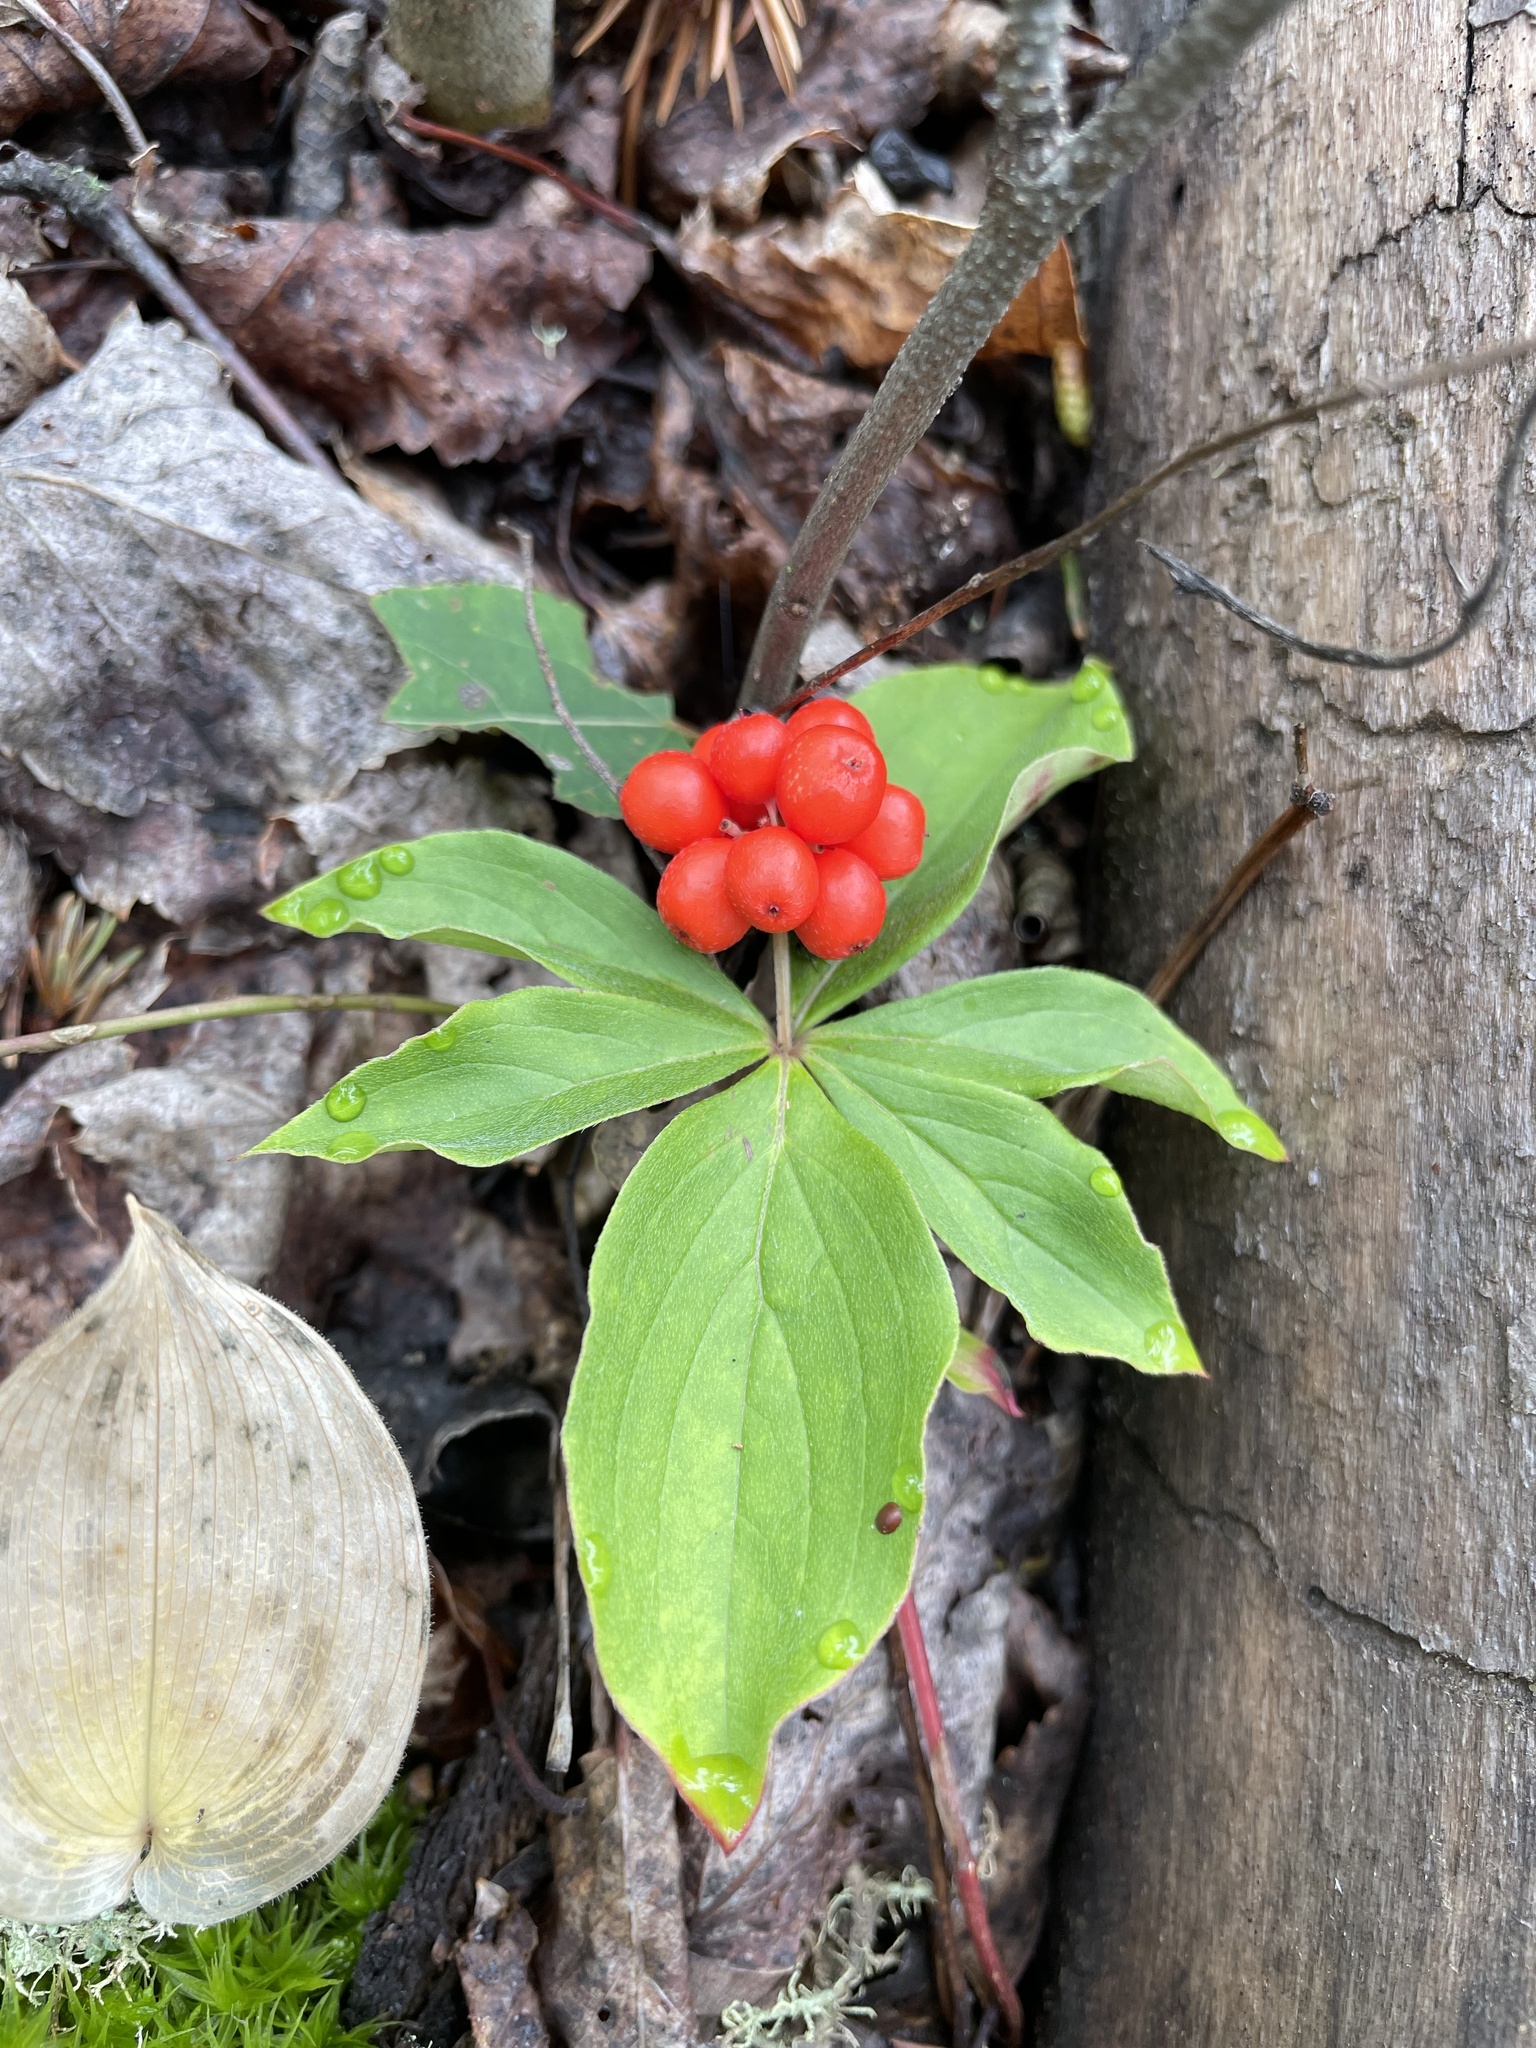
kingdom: Plantae
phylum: Tracheophyta
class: Magnoliopsida
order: Cornales
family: Cornaceae
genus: Cornus
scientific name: Cornus canadensis
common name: Creeping dogwood
